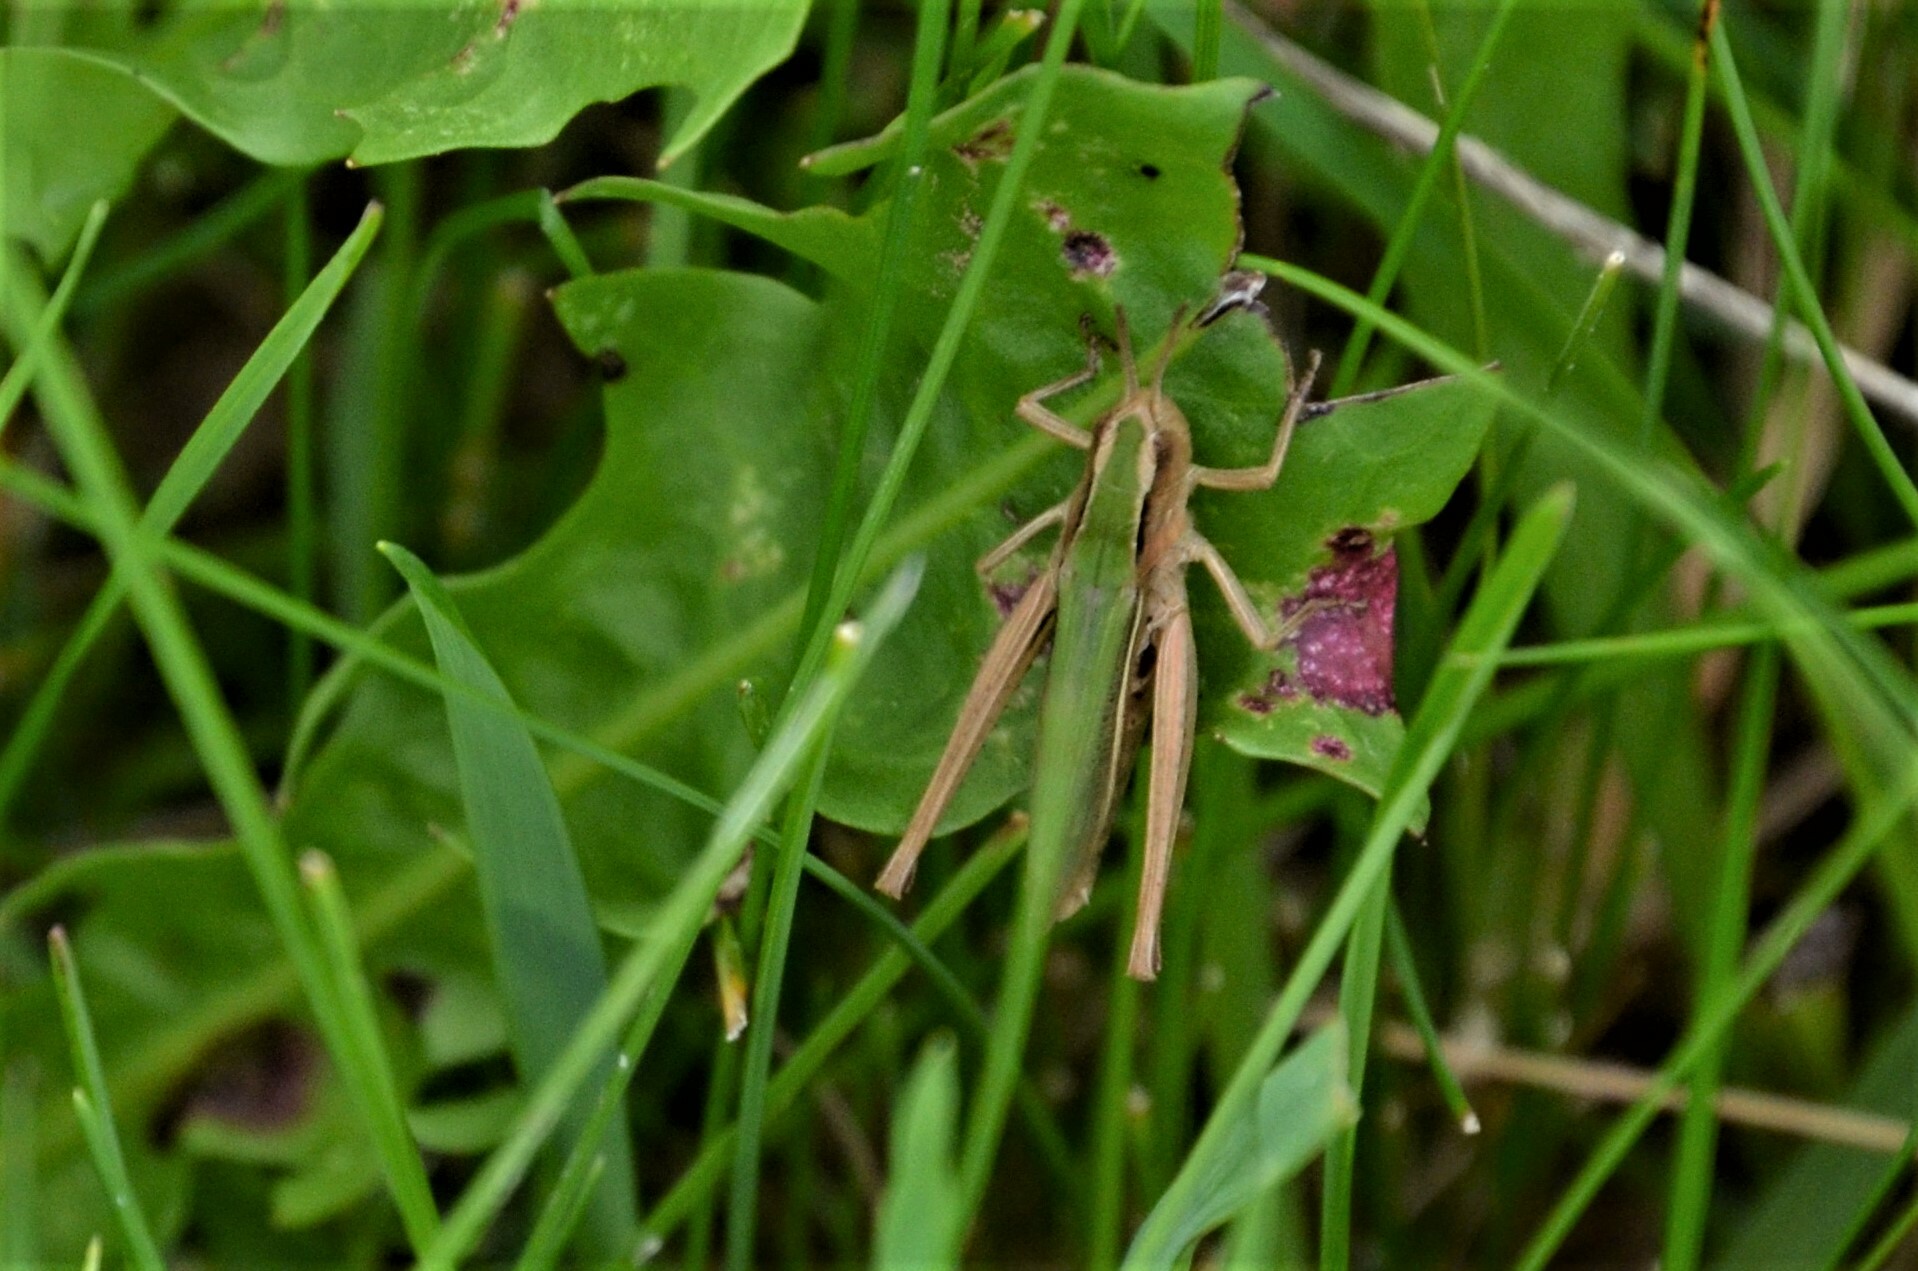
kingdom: Animalia
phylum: Arthropoda
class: Insecta
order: Orthoptera
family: Acrididae
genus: Chorthippus
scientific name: Chorthippus albomarginatus
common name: Lesser marsh grasshopper
